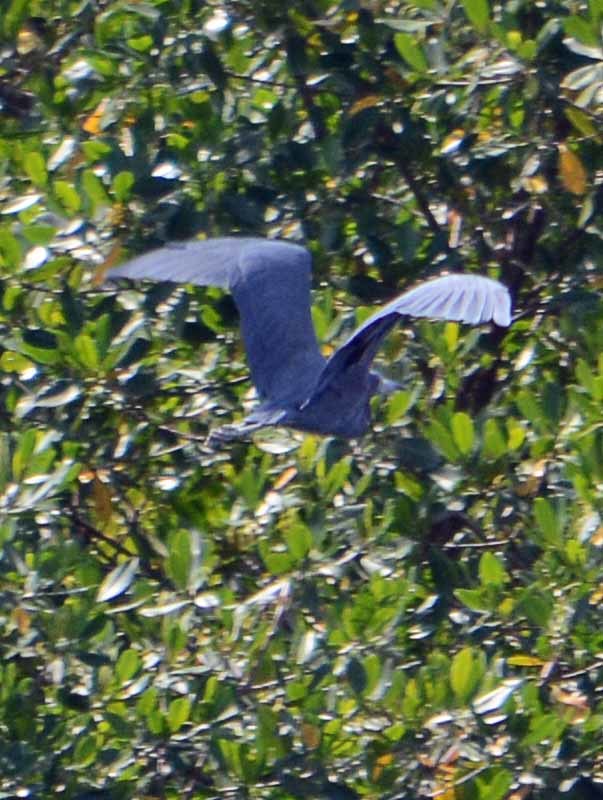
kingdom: Animalia
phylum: Chordata
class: Aves
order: Pelecaniformes
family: Ardeidae
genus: Egretta
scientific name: Egretta caerulea
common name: Little blue heron
